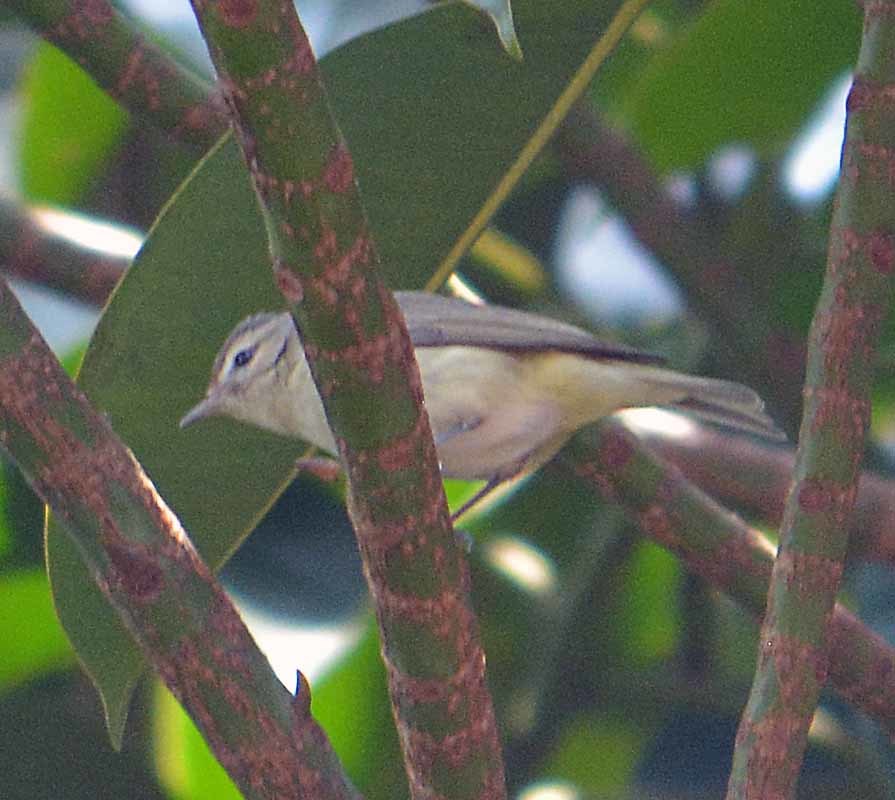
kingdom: Animalia
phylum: Chordata
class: Aves
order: Passeriformes
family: Vireonidae
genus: Vireo
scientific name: Vireo gilvus
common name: Warbling vireo
